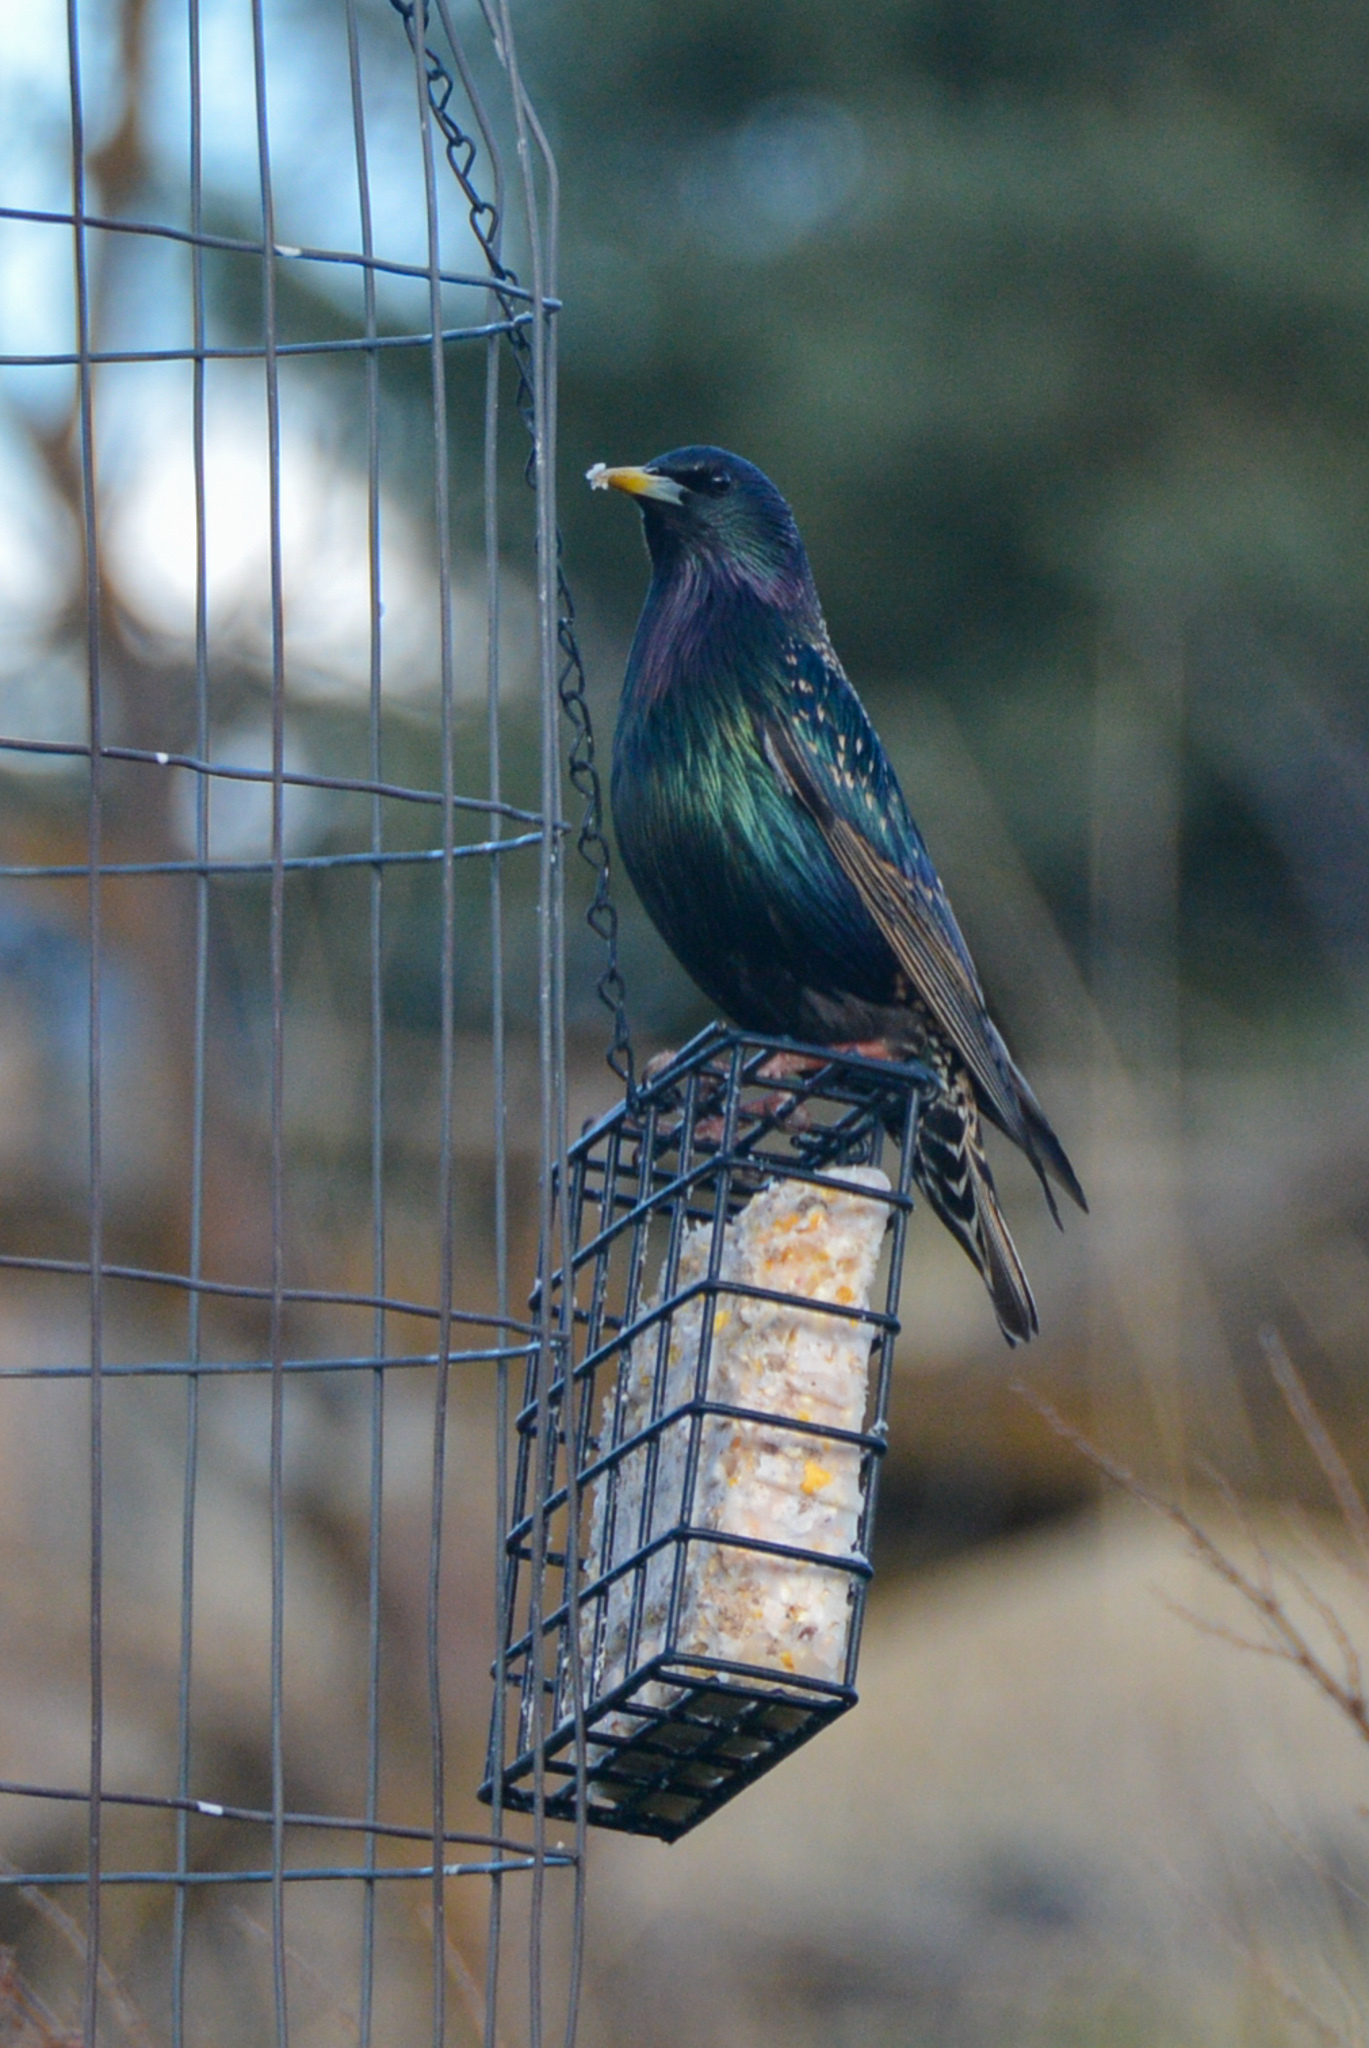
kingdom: Animalia
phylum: Chordata
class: Aves
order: Passeriformes
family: Sturnidae
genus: Sturnus
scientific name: Sturnus vulgaris
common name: Common starling
